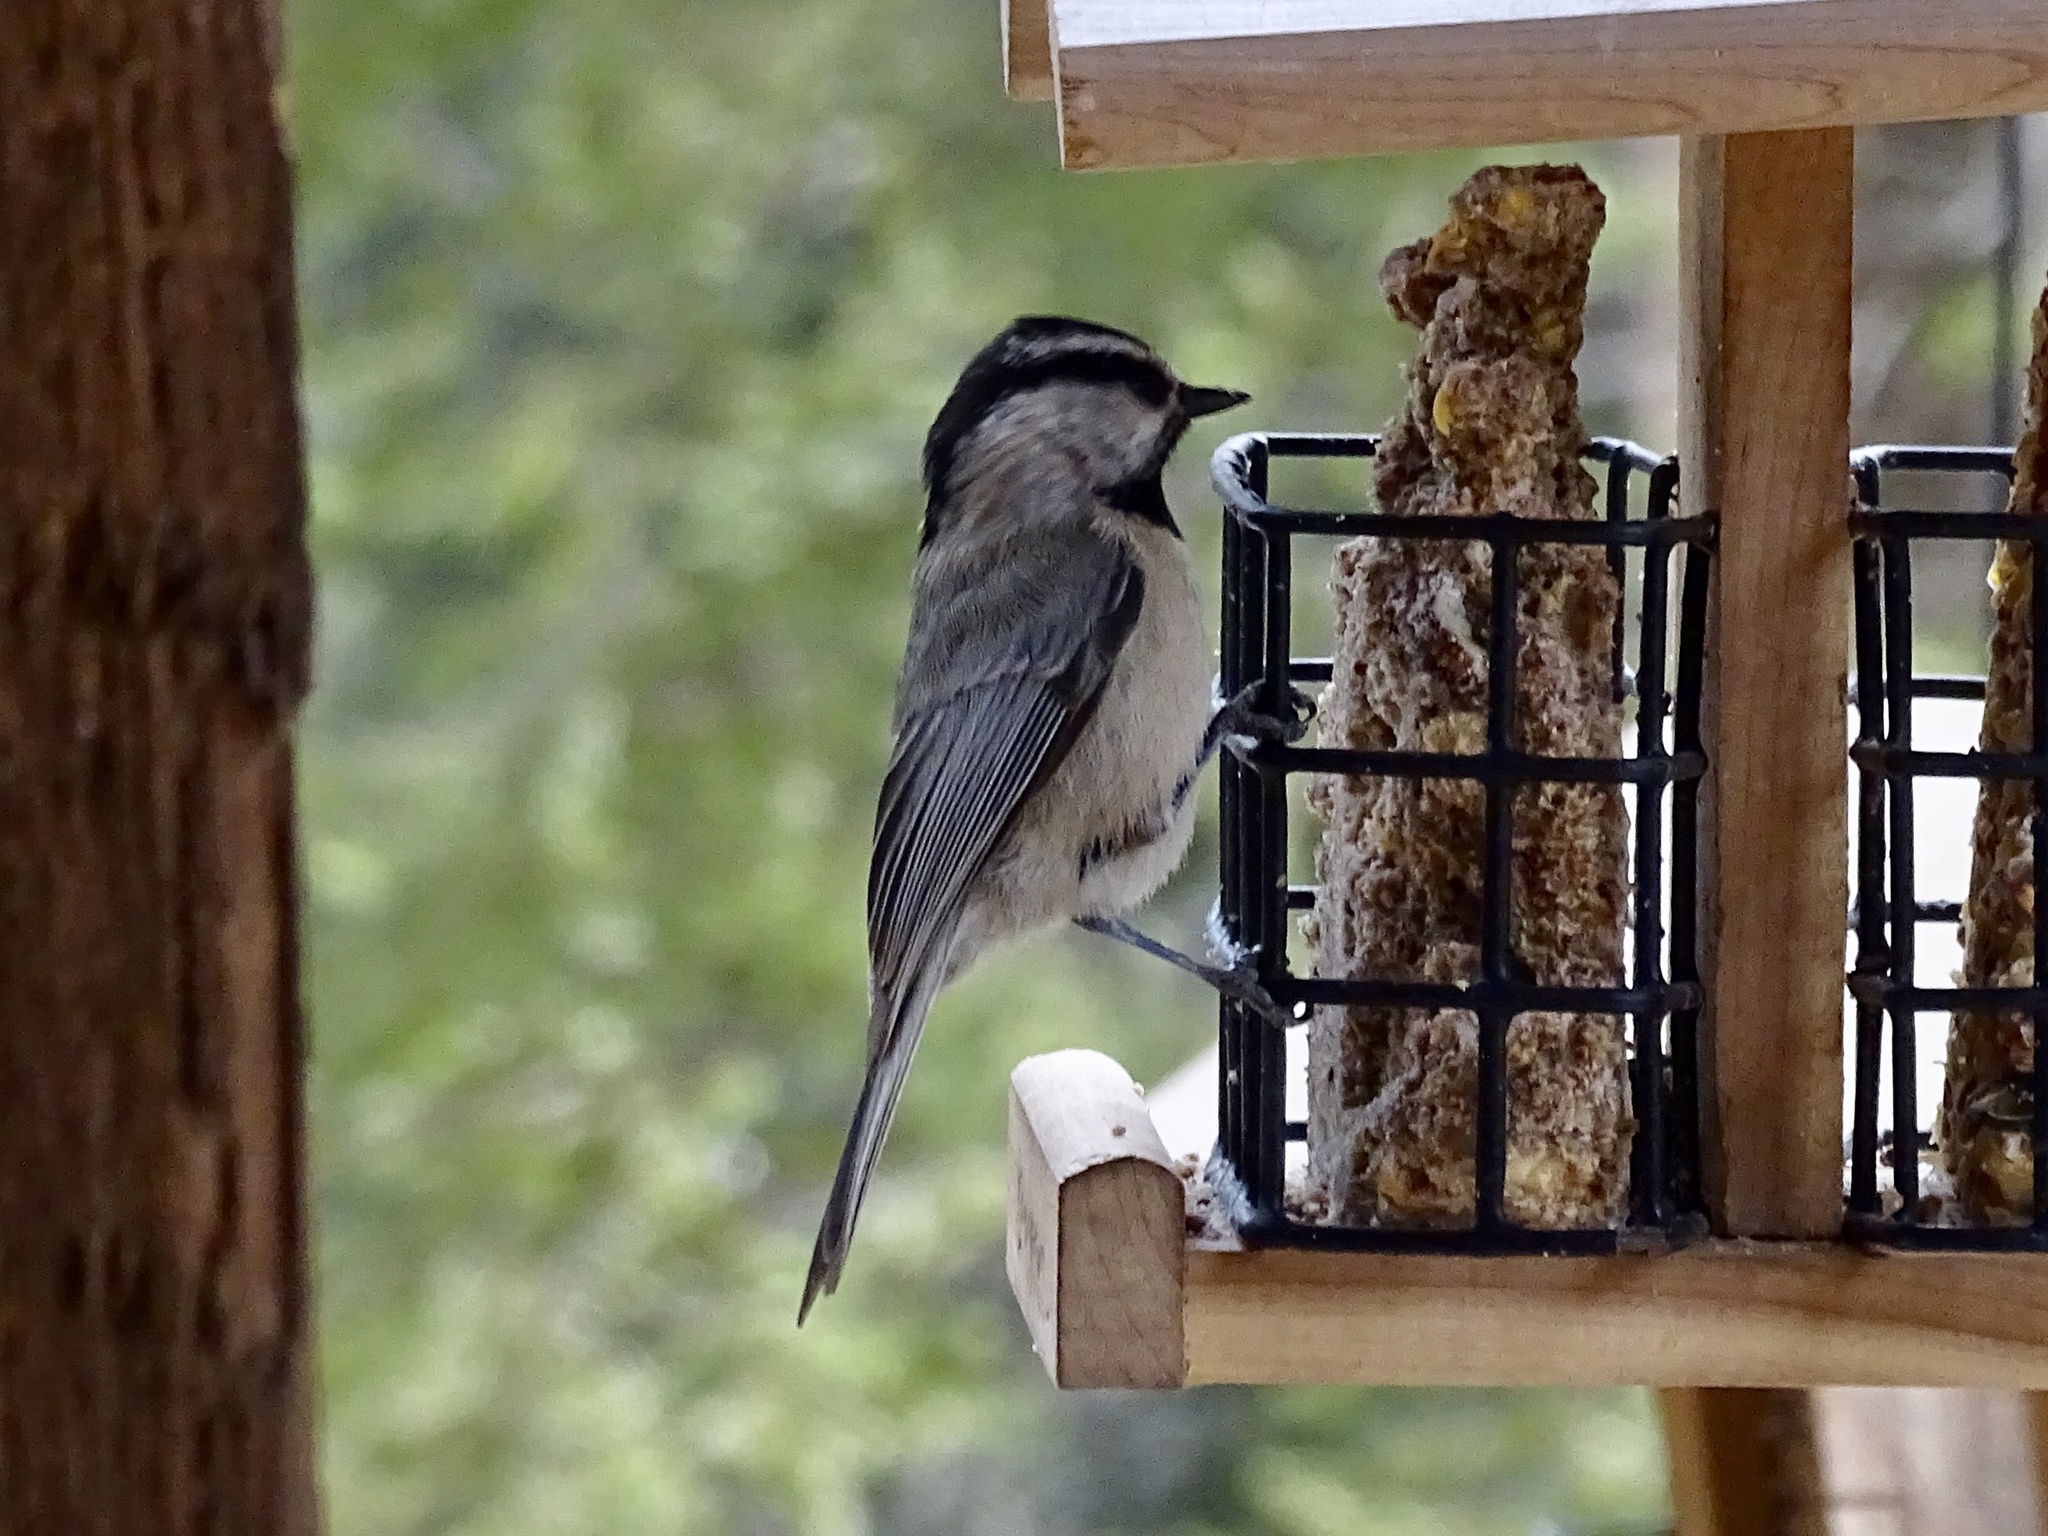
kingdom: Animalia
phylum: Chordata
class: Aves
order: Passeriformes
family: Paridae
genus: Poecile
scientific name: Poecile gambeli
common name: Mountain chickadee
